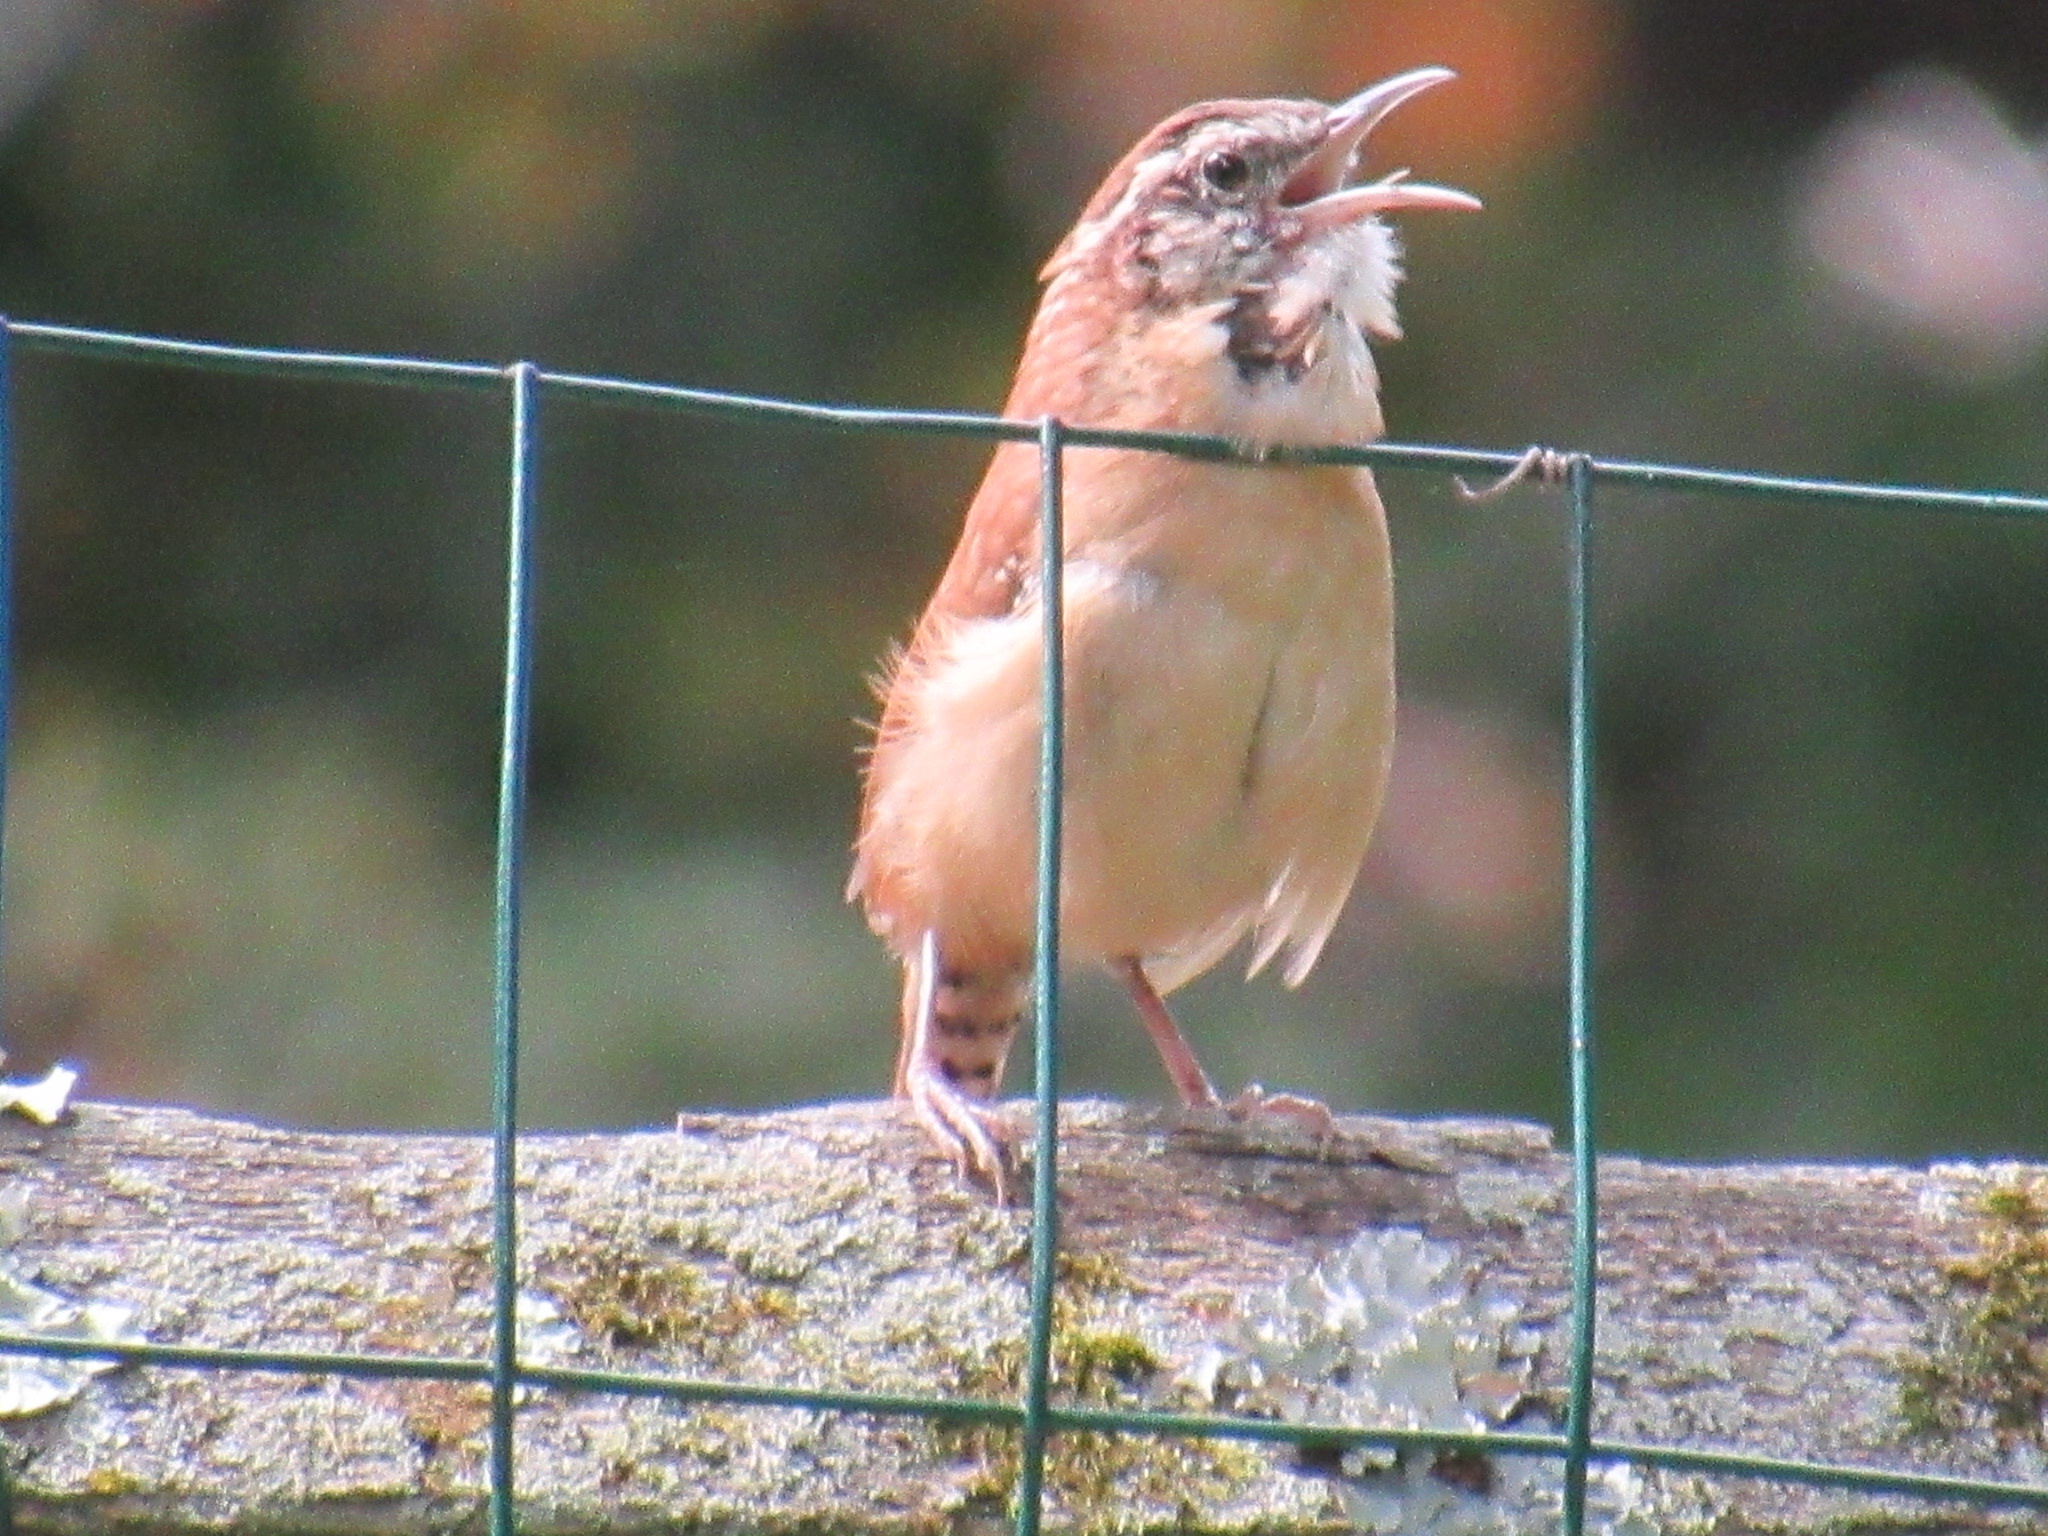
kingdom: Animalia
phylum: Chordata
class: Aves
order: Passeriformes
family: Troglodytidae
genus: Thryothorus
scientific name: Thryothorus ludovicianus
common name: Carolina wren
